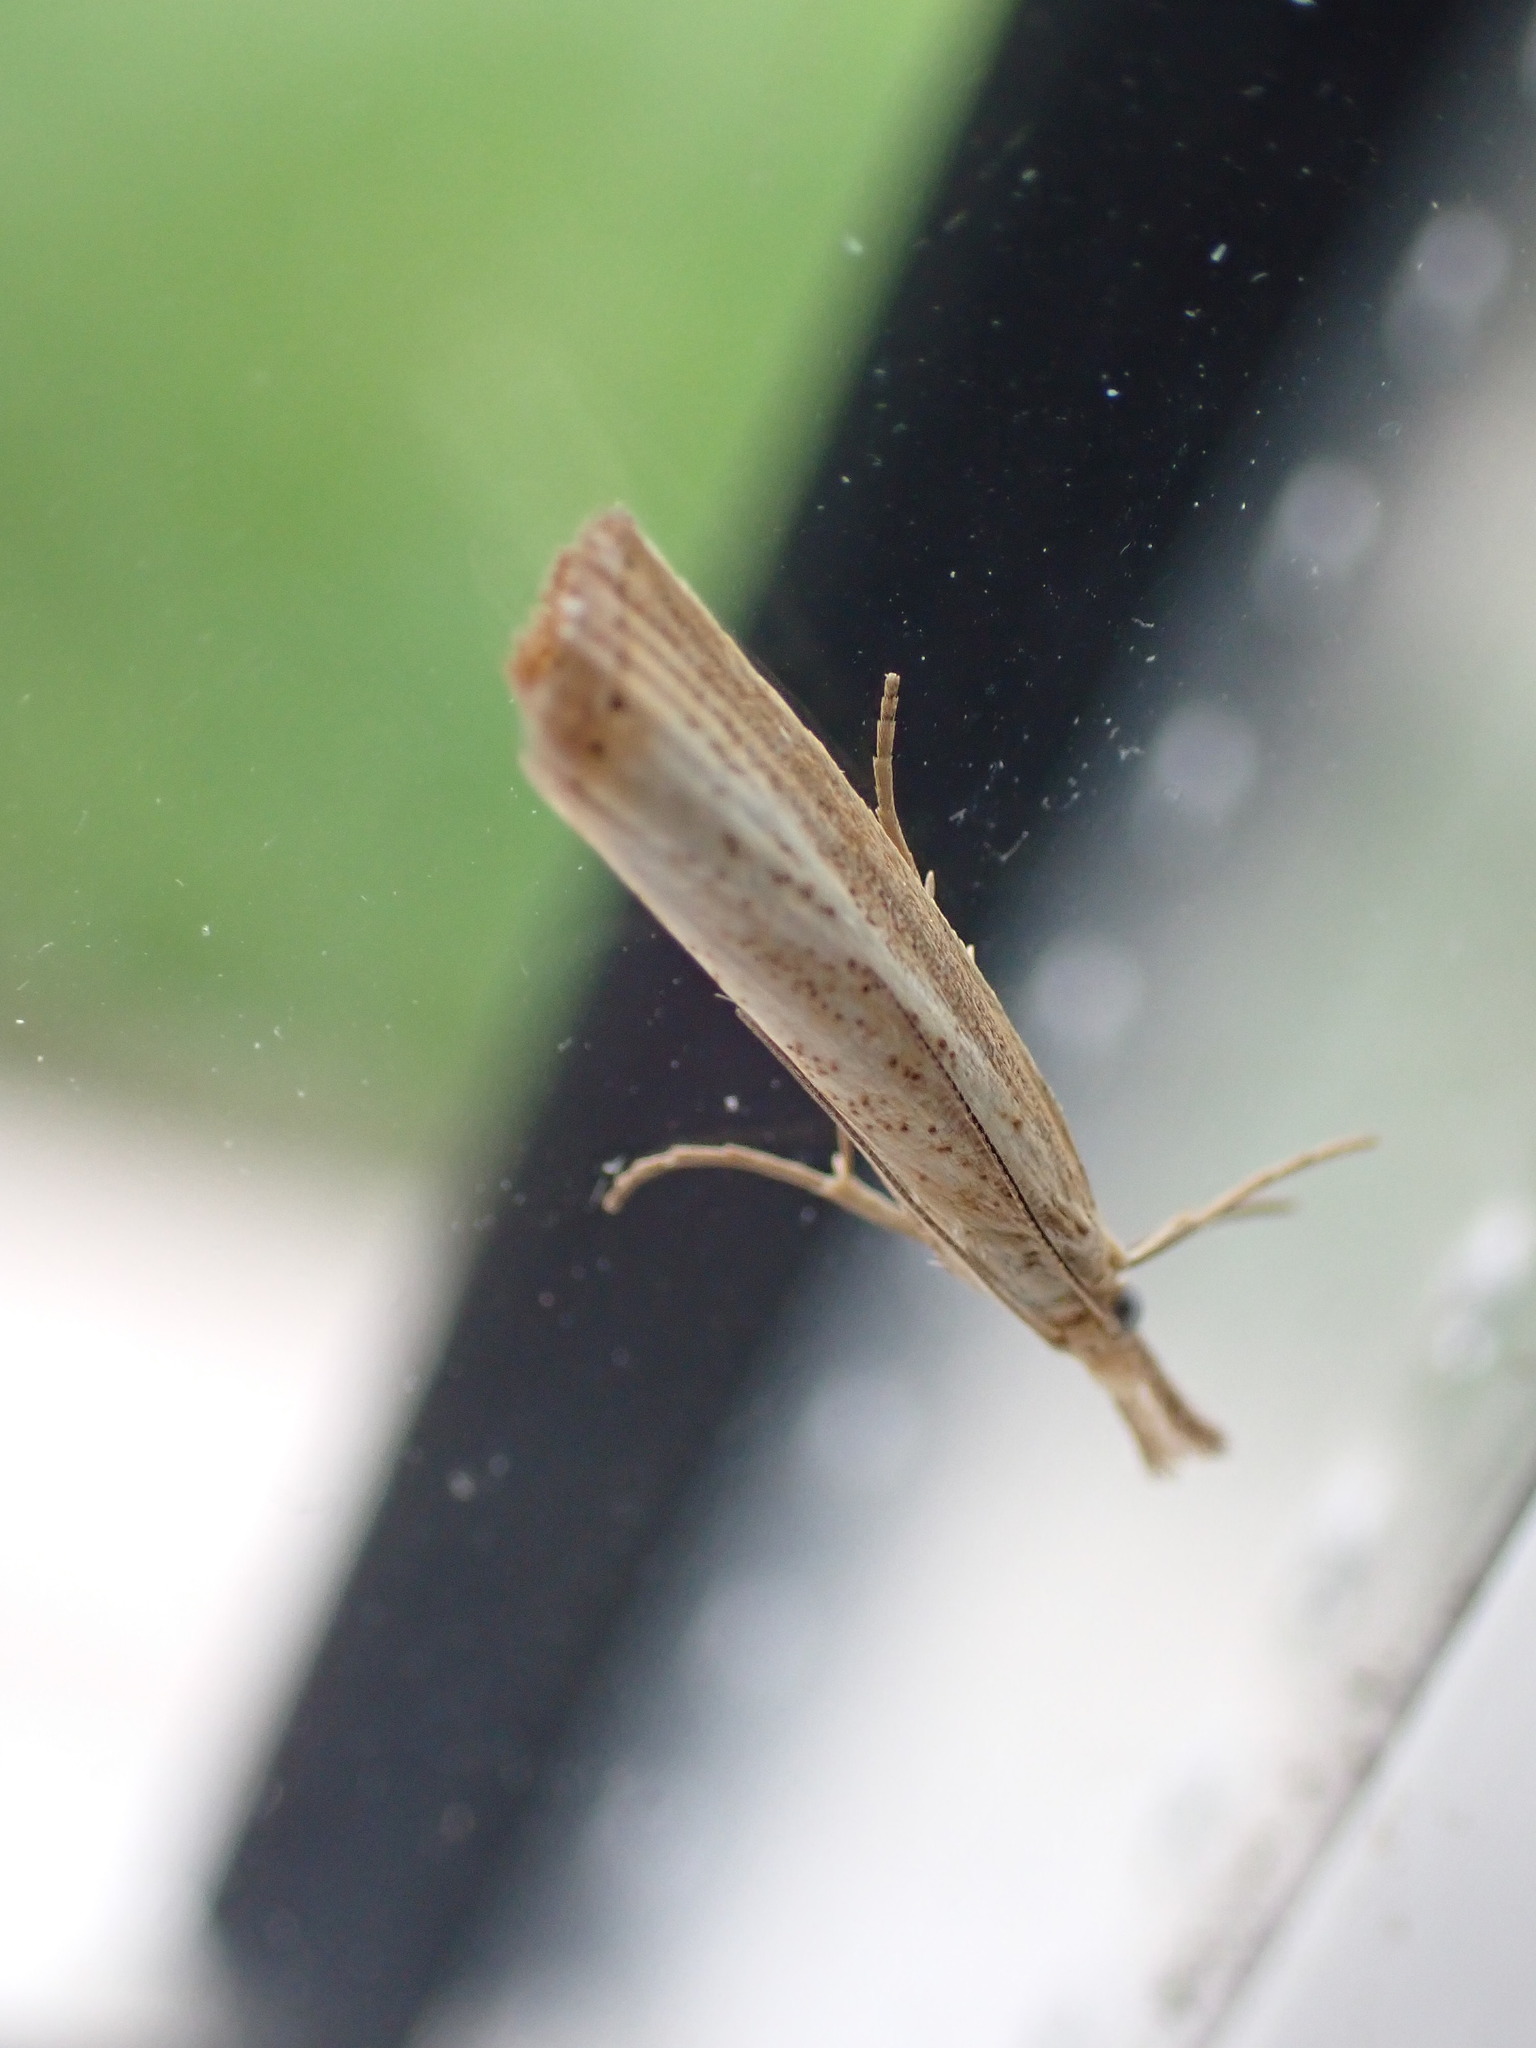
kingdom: Animalia
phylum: Arthropoda
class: Insecta
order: Lepidoptera
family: Crambidae
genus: Agriphila
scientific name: Agriphila straminella
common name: Straw grass-veneer
